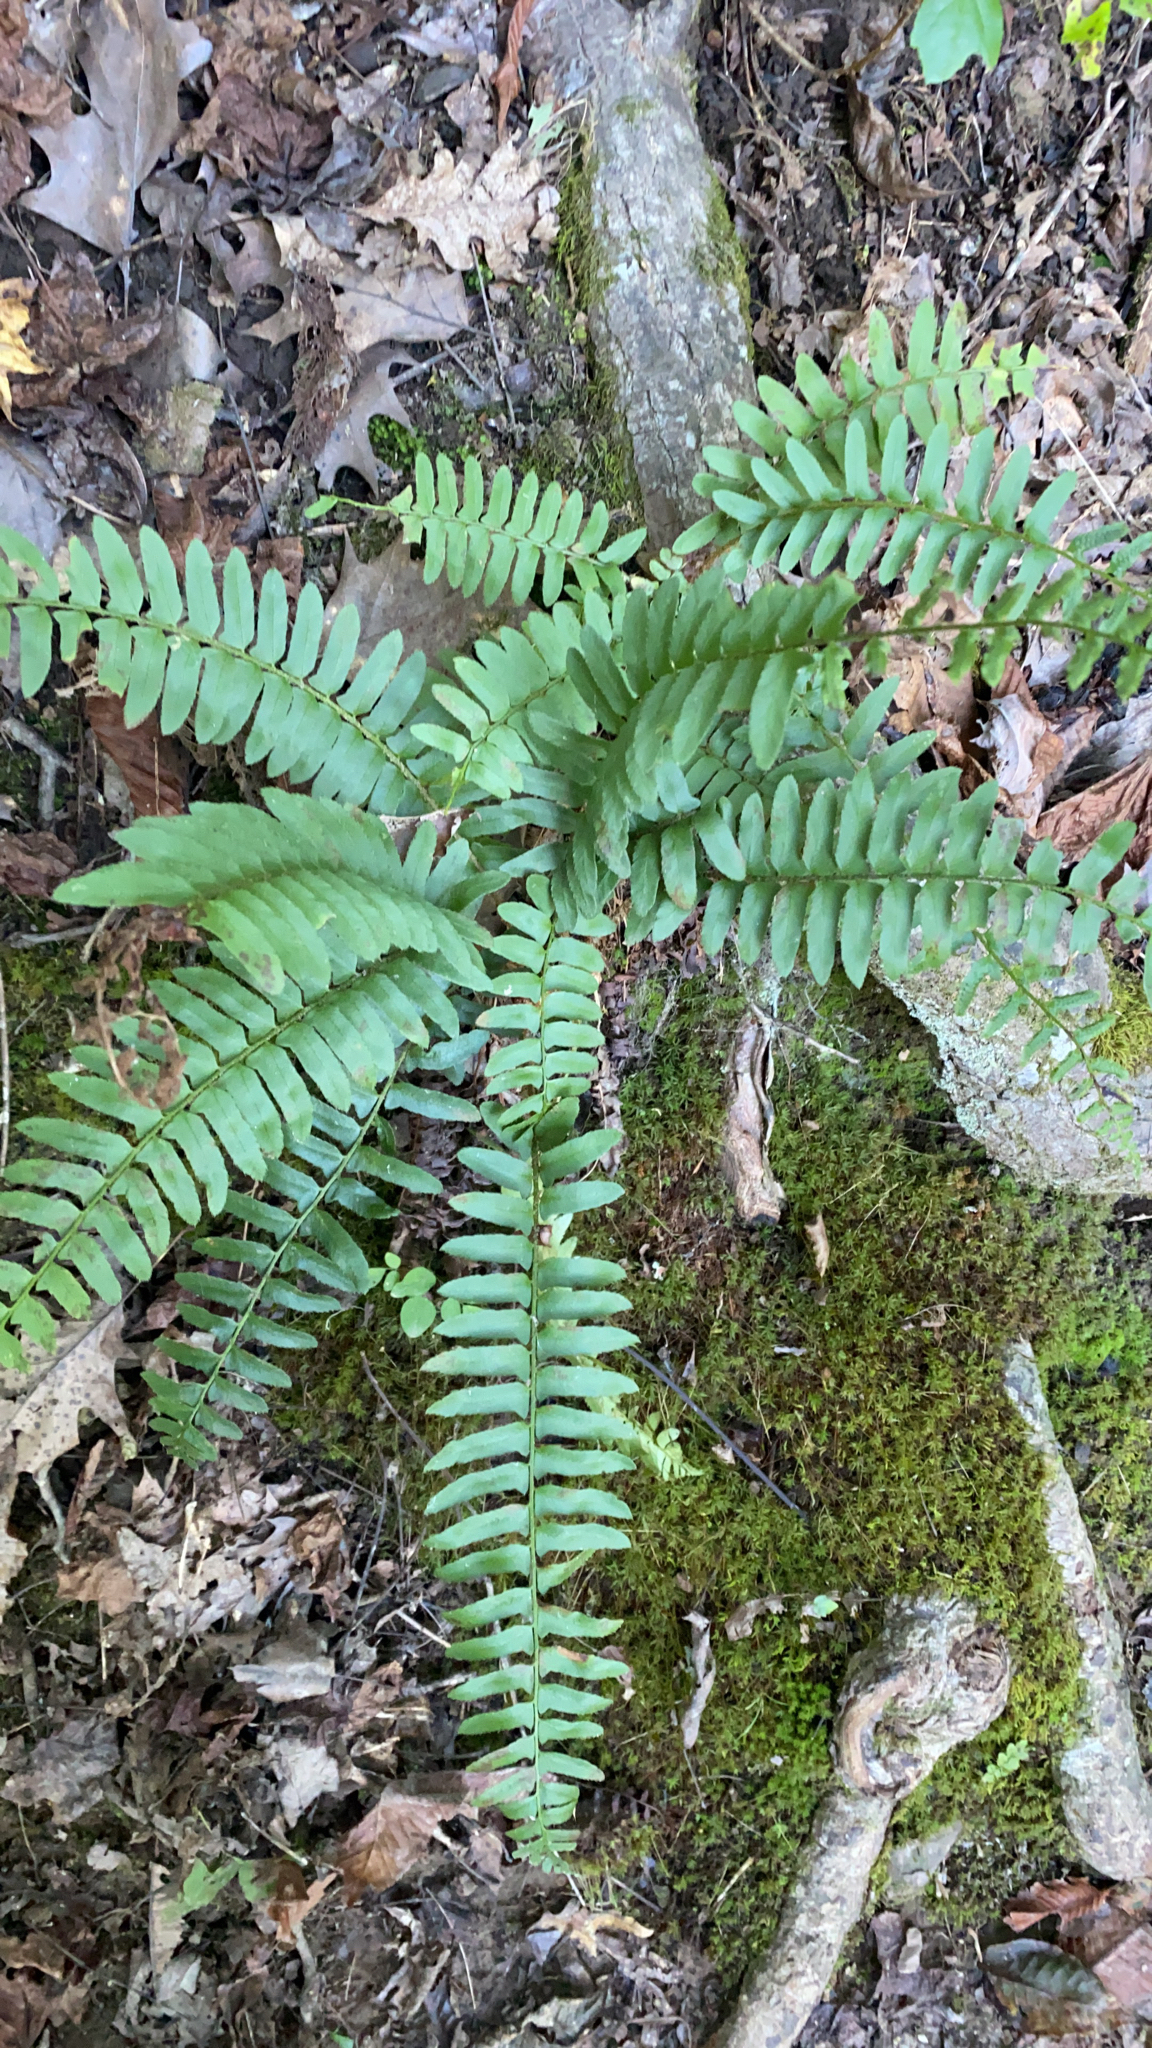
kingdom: Plantae
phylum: Tracheophyta
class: Polypodiopsida
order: Polypodiales
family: Dryopteridaceae
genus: Polystichum
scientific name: Polystichum acrostichoides
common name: Christmas fern
